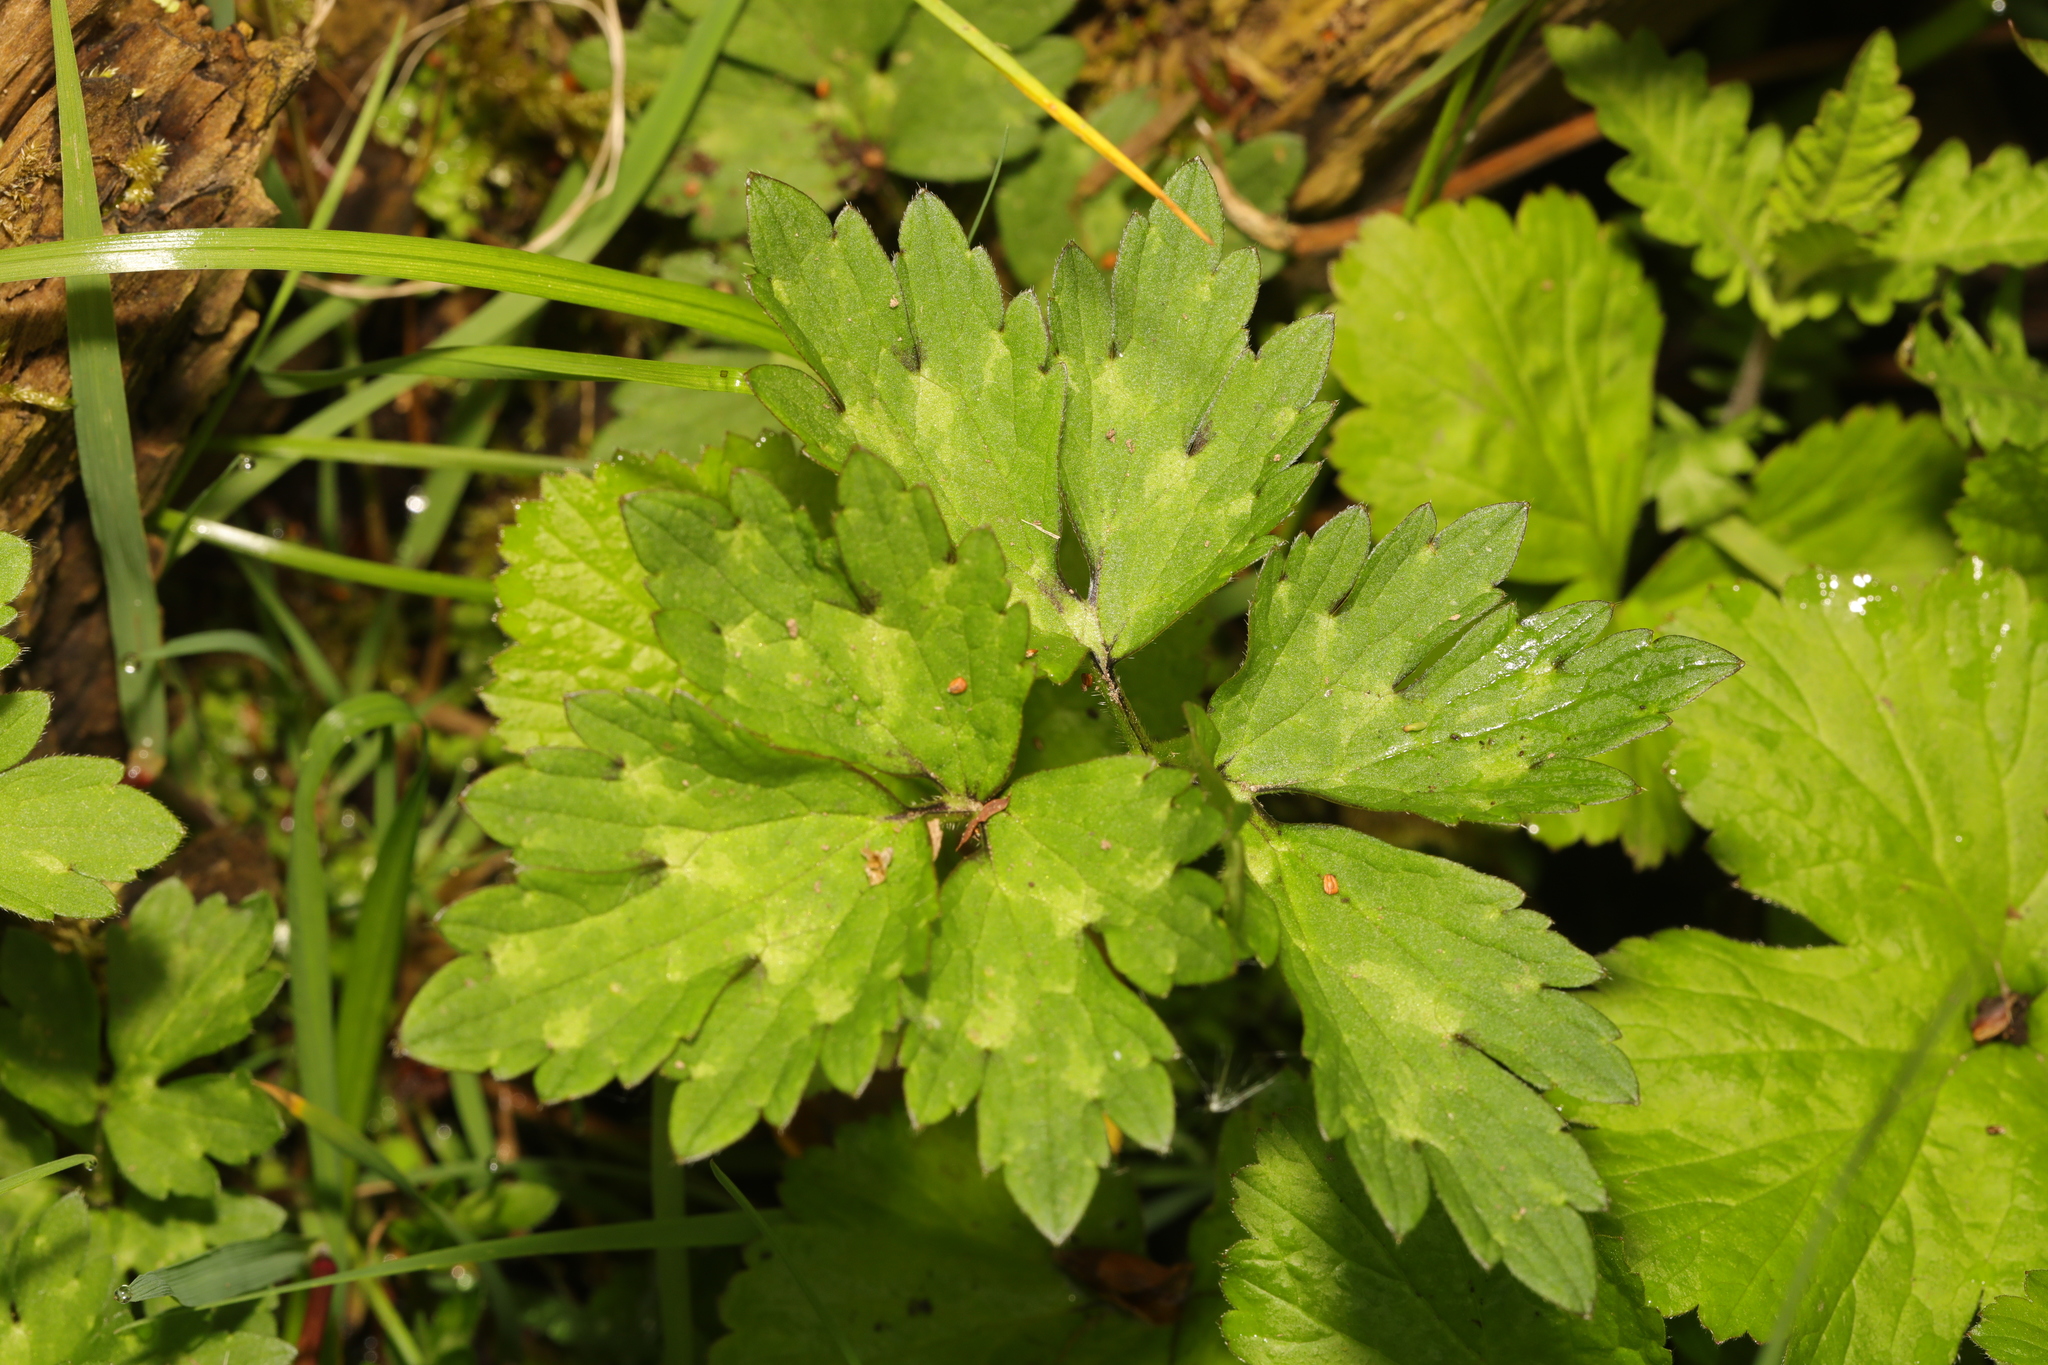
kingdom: Plantae
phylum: Tracheophyta
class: Magnoliopsida
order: Ranunculales
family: Ranunculaceae
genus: Ranunculus
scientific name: Ranunculus repens
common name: Creeping buttercup
